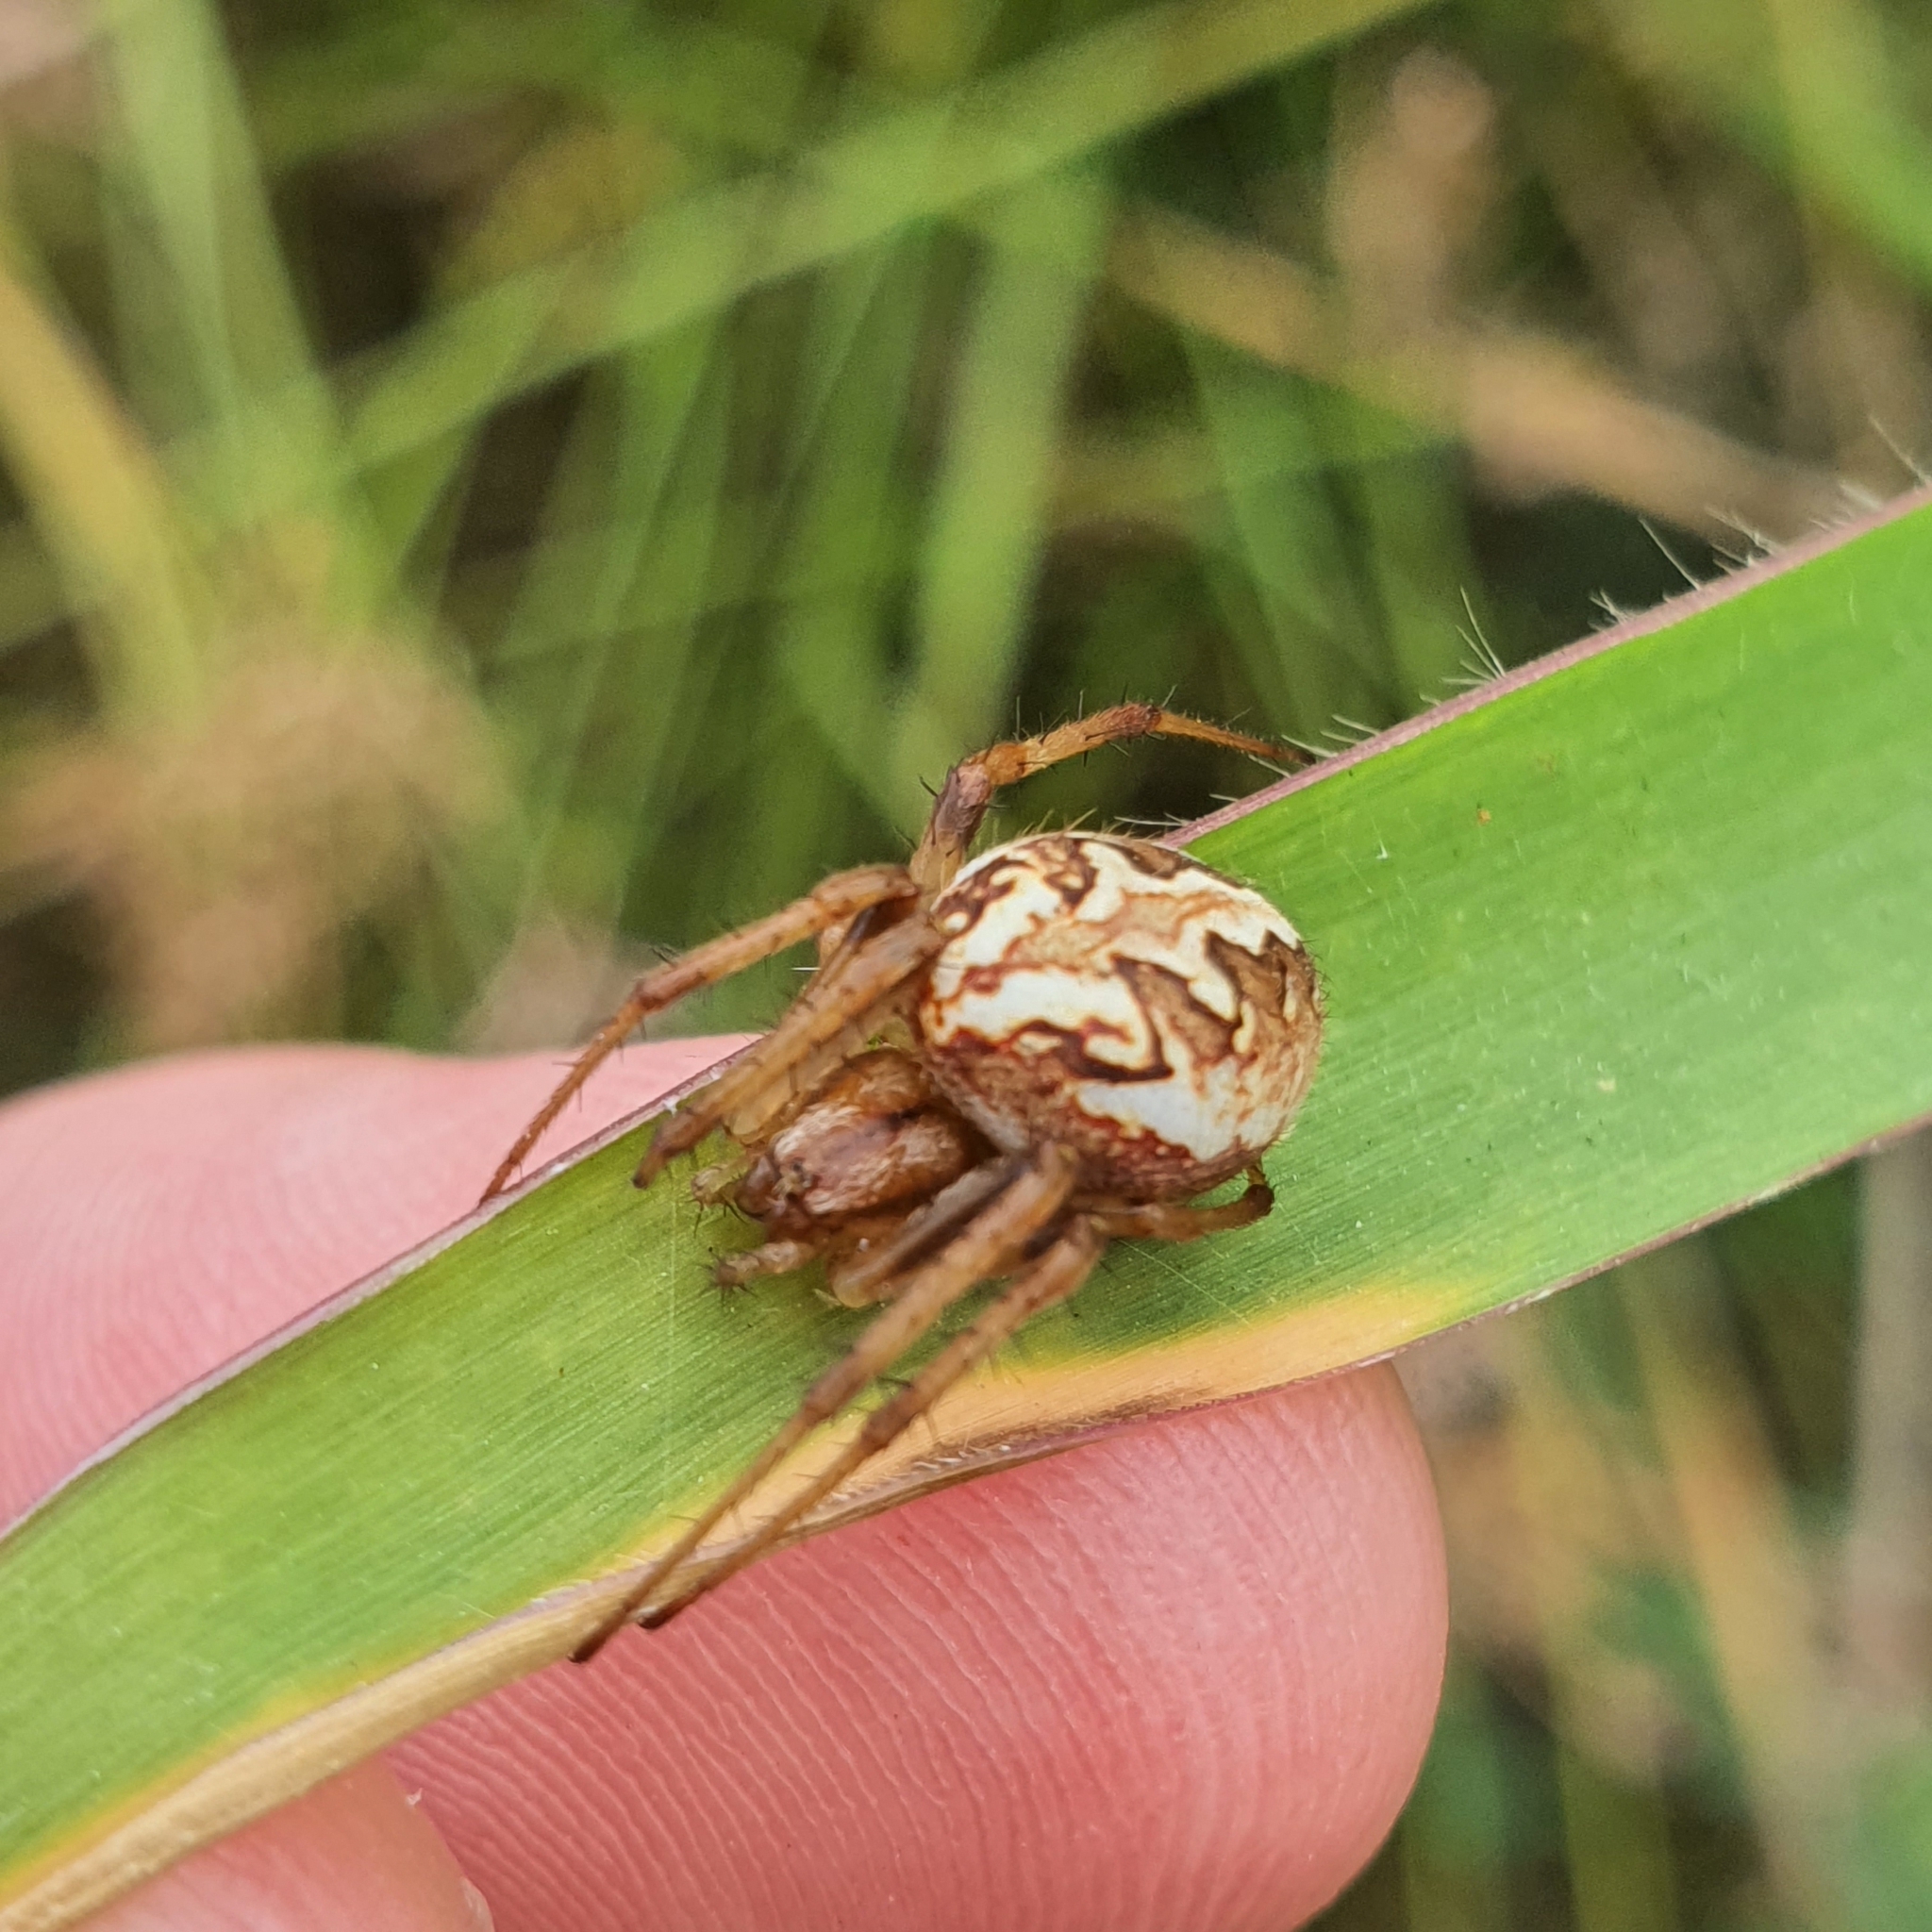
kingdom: Animalia
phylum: Arthropoda
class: Arachnida
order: Araneae
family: Araneidae
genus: Neoscona
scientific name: Neoscona theisi
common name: Spider
